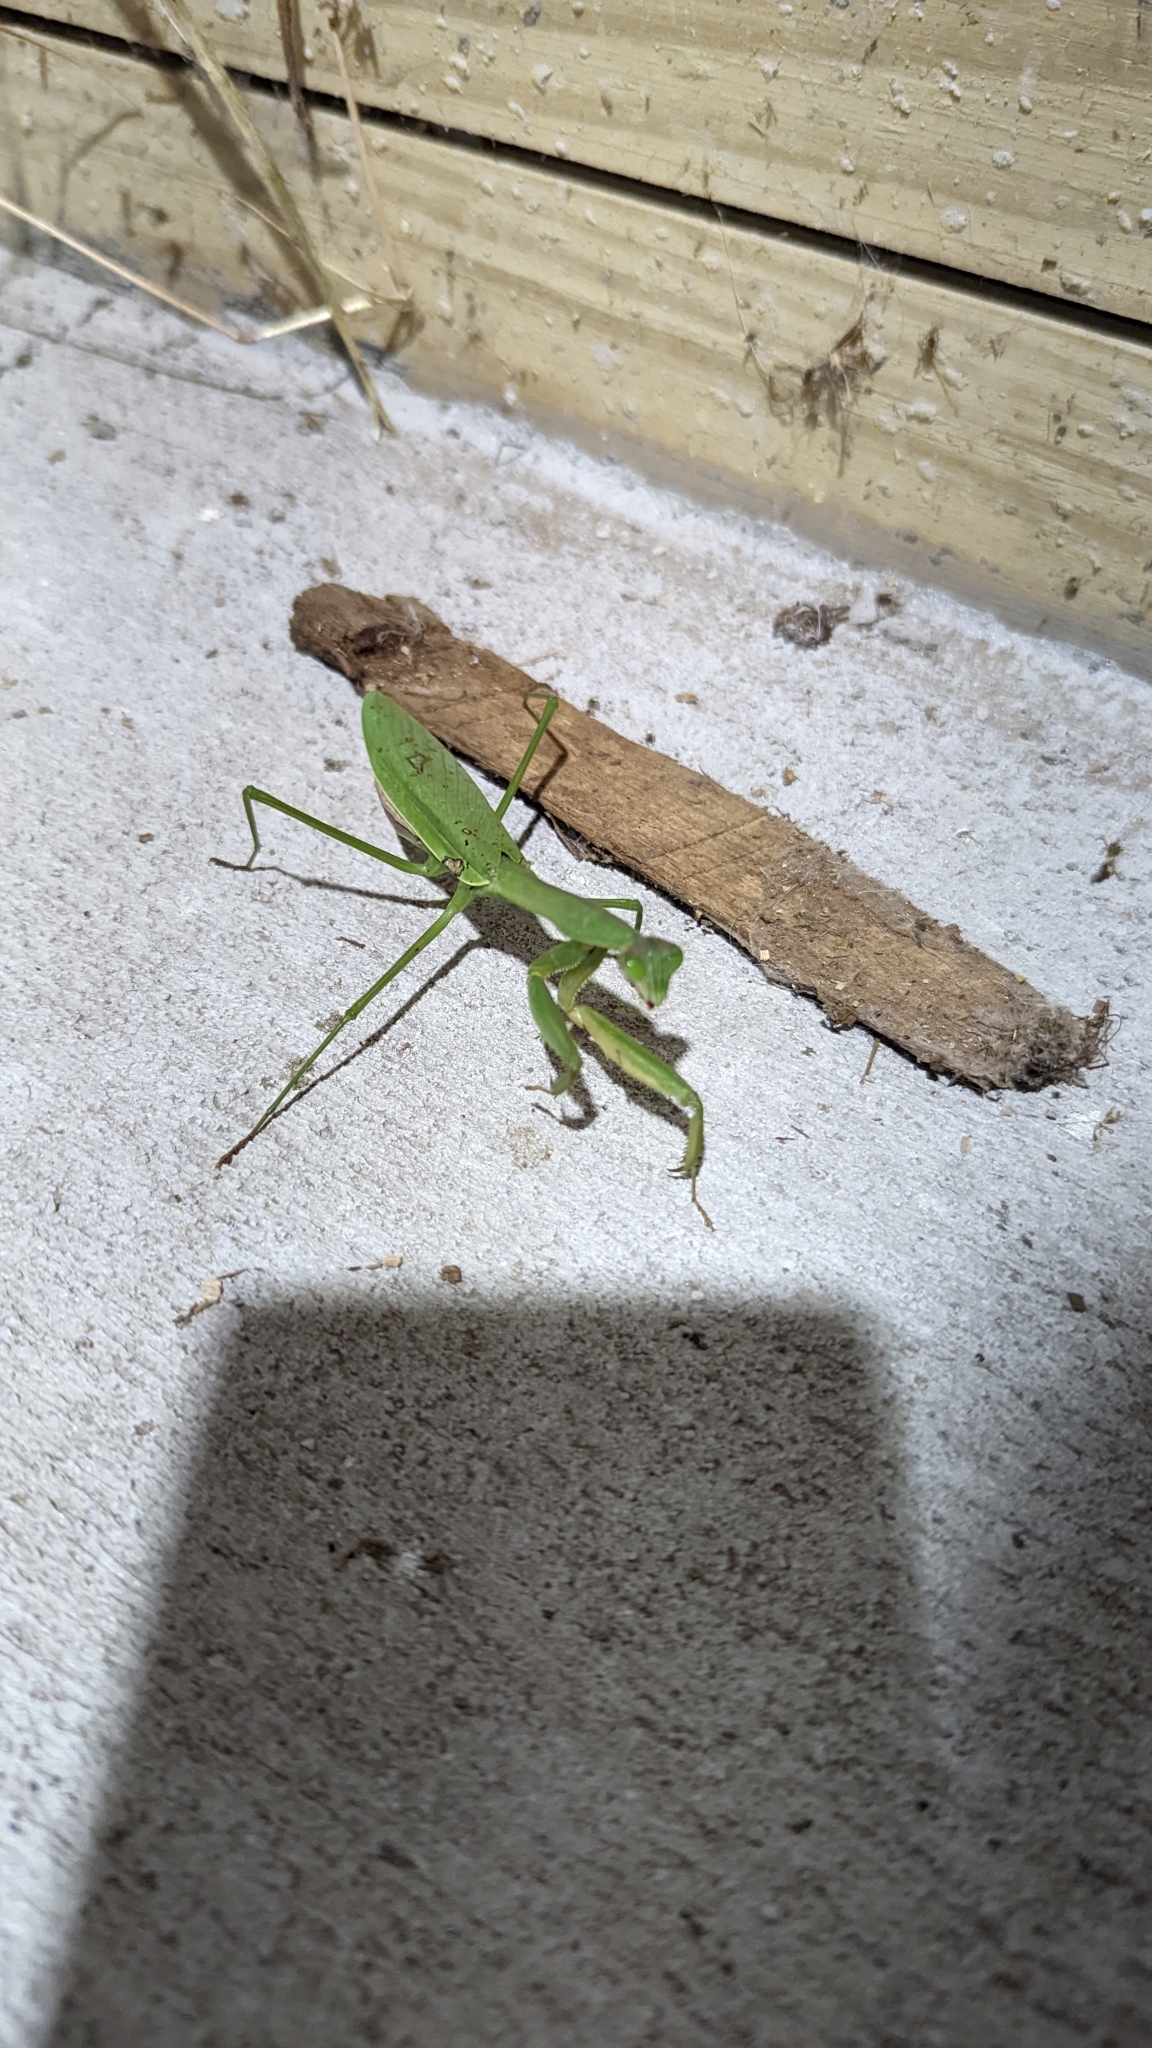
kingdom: Animalia
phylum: Arthropoda
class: Insecta
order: Mantodea
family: Mantidae
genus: Tenodera
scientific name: Tenodera sinensis
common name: Chinese mantis
